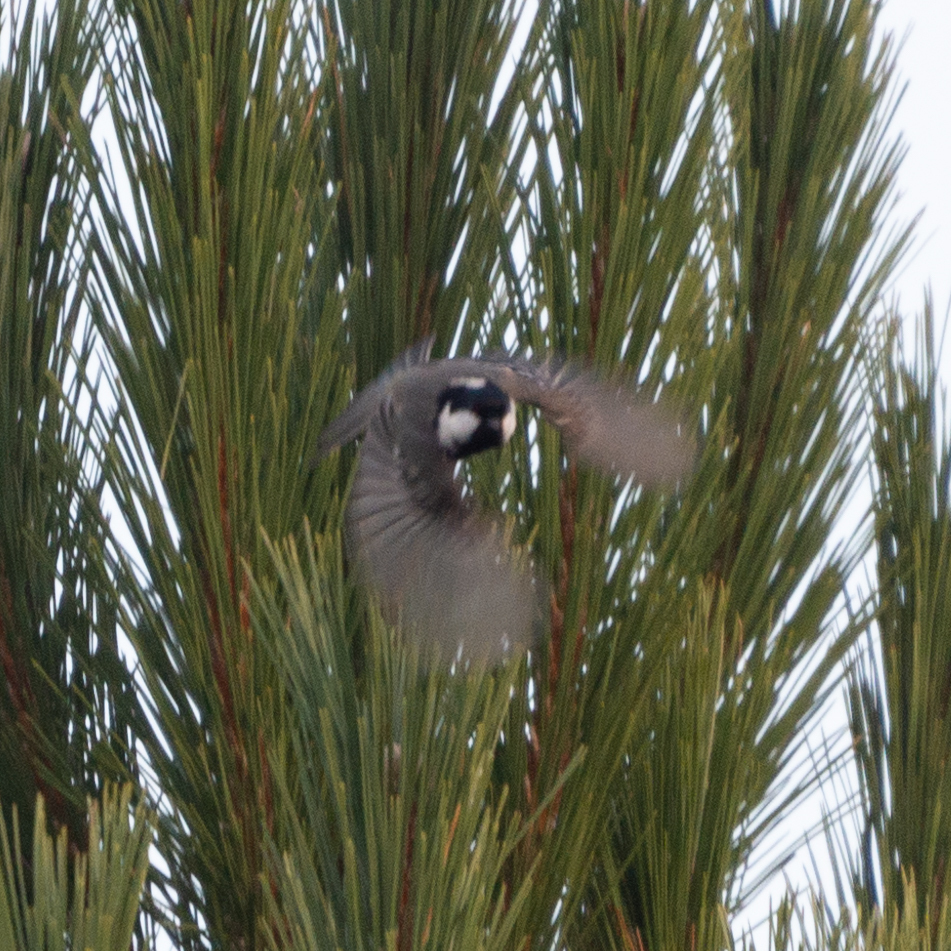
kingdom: Animalia
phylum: Chordata
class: Aves
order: Passeriformes
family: Paridae
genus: Periparus
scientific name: Periparus ater
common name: Coal tit
